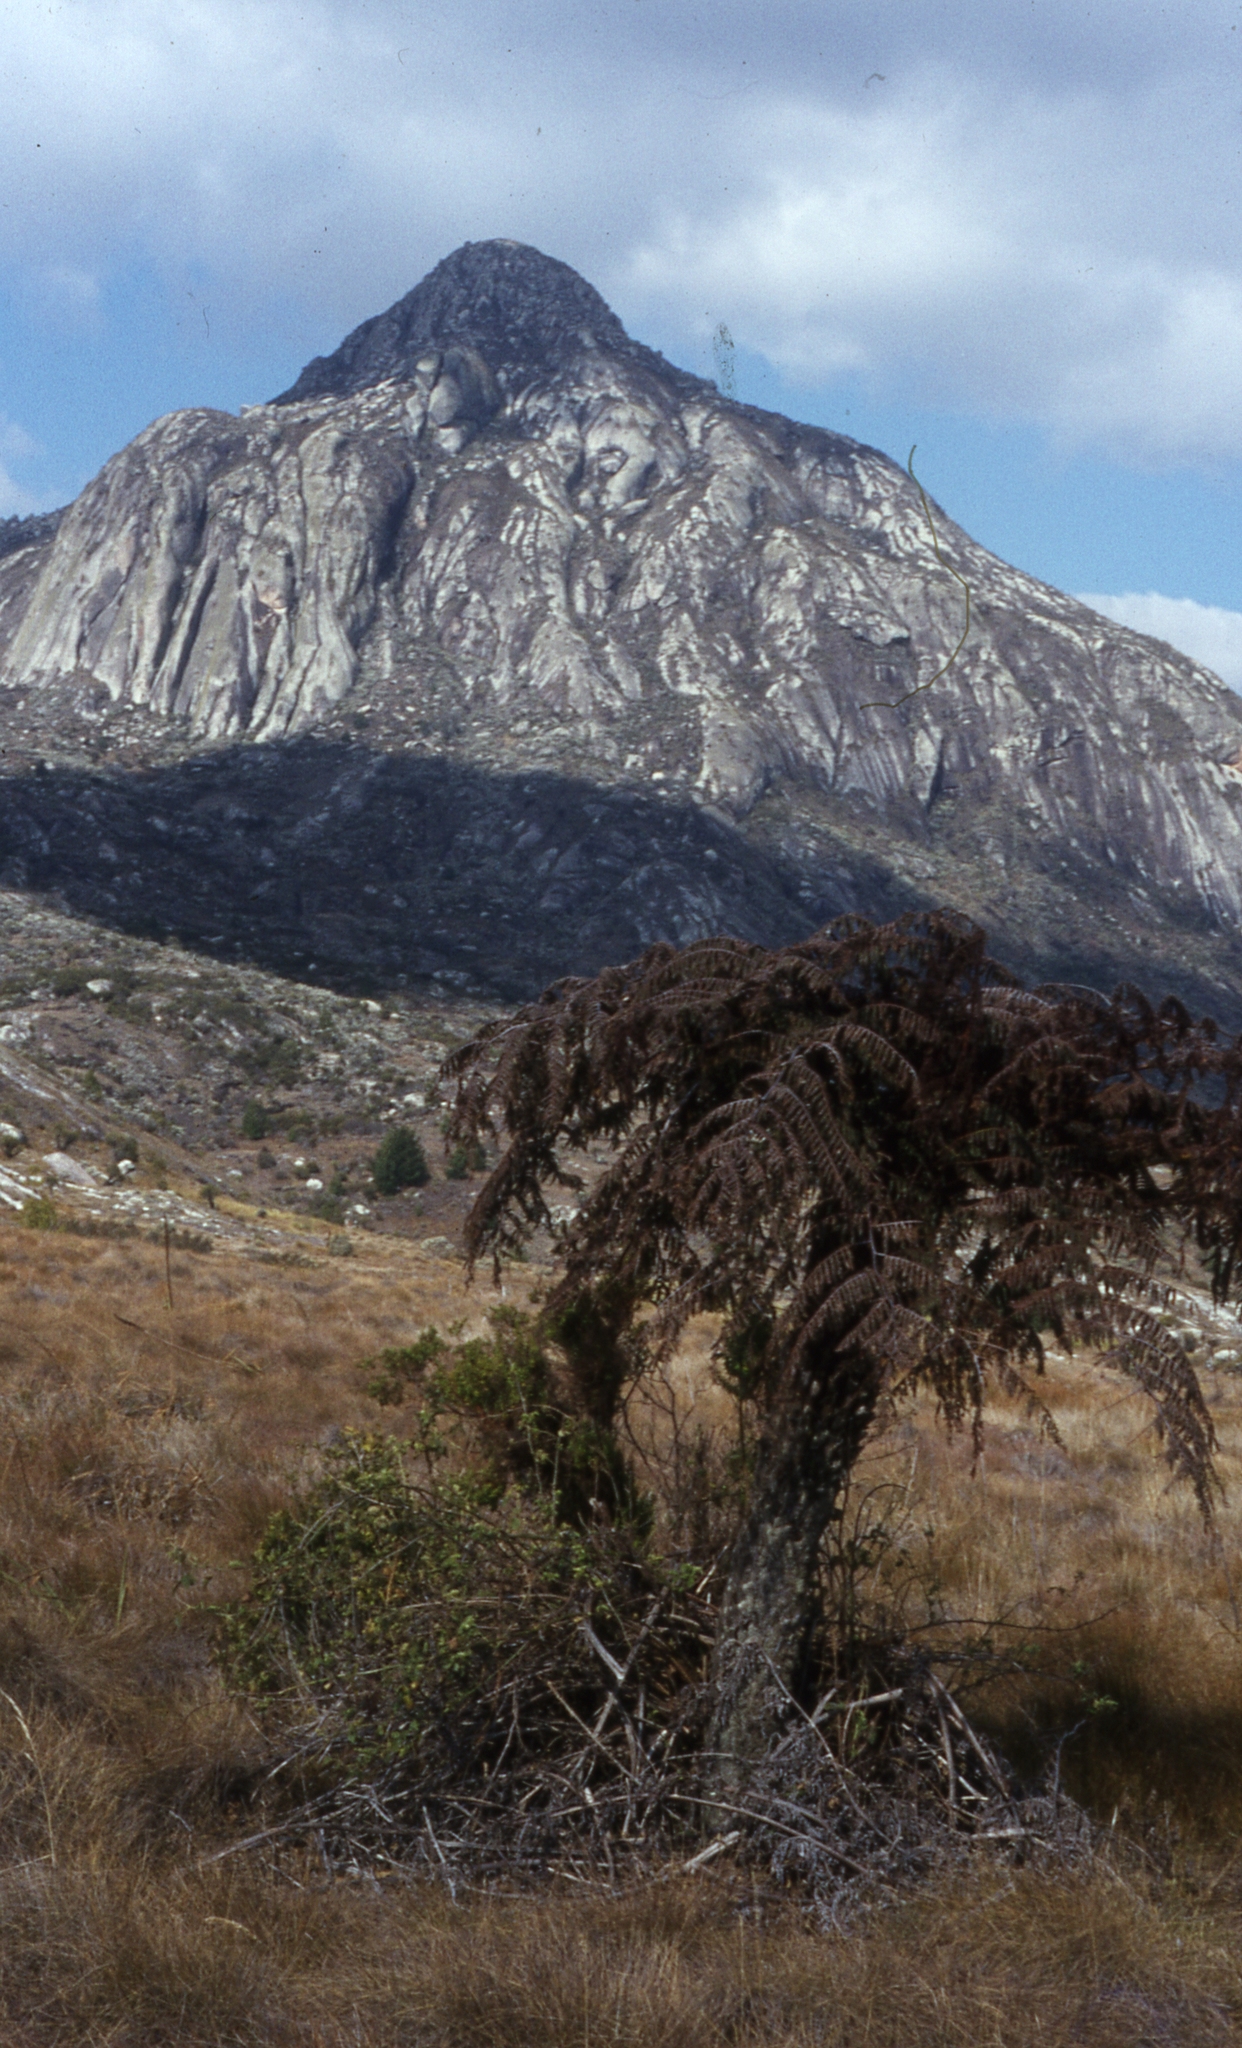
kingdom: Plantae
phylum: Tracheophyta
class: Polypodiopsida
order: Cyatheales
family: Cyatheaceae
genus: Alsophila
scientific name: Alsophila dregei
